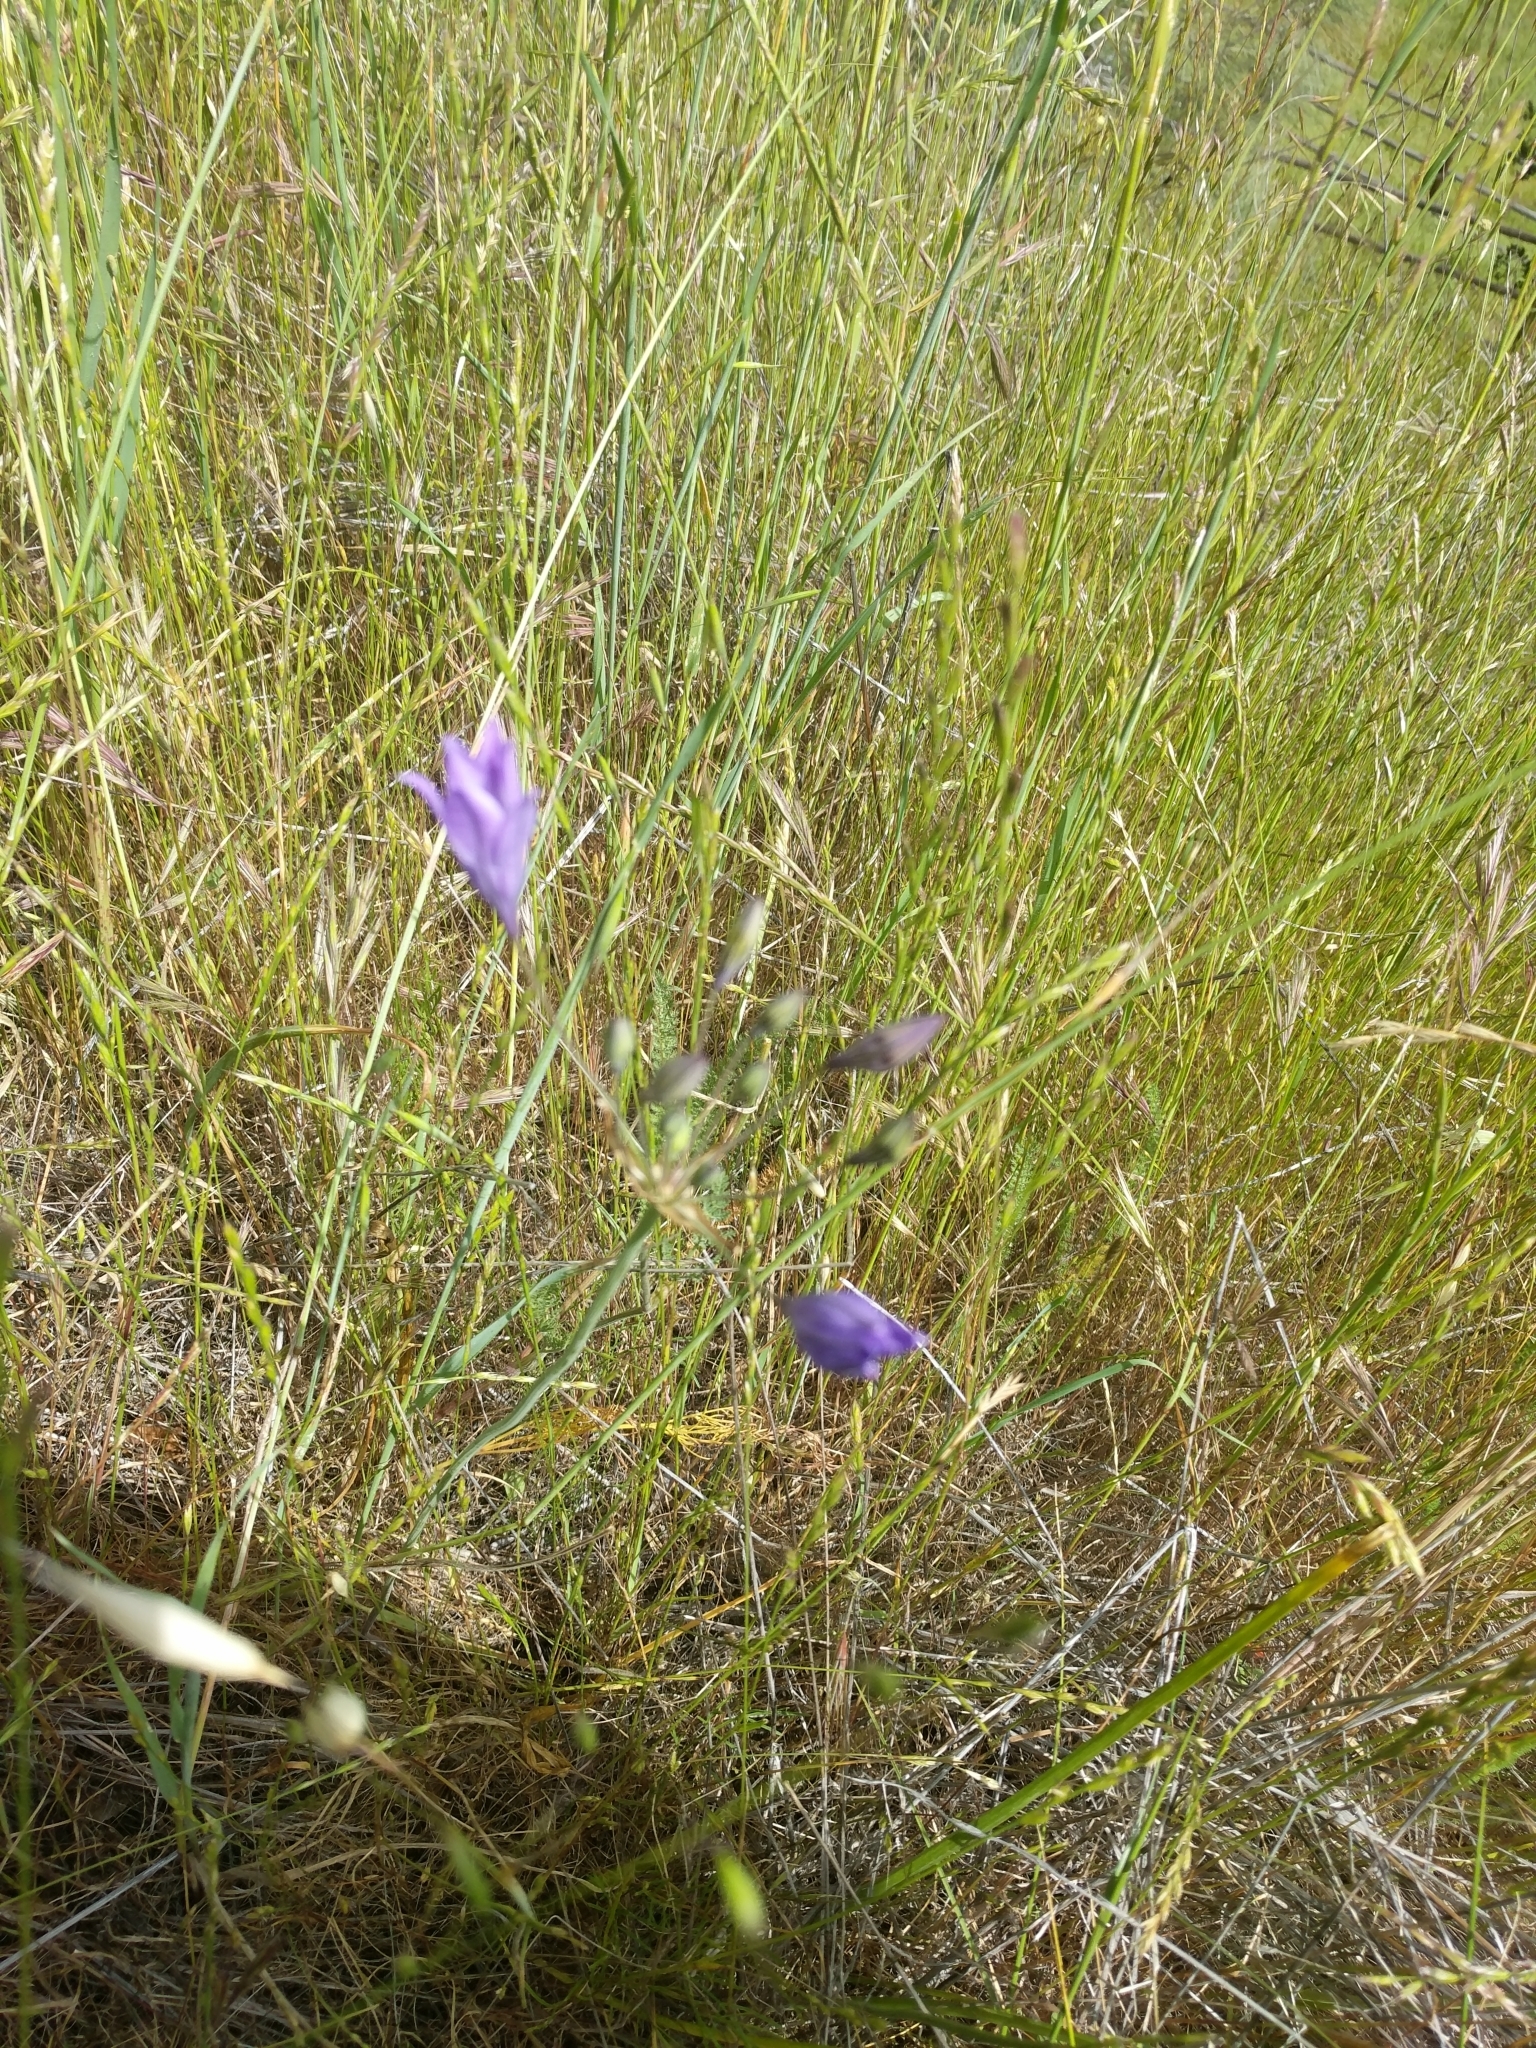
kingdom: Plantae
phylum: Tracheophyta
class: Liliopsida
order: Asparagales
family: Asparagaceae
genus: Triteleia
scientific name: Triteleia laxa
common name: Triplet-lily
